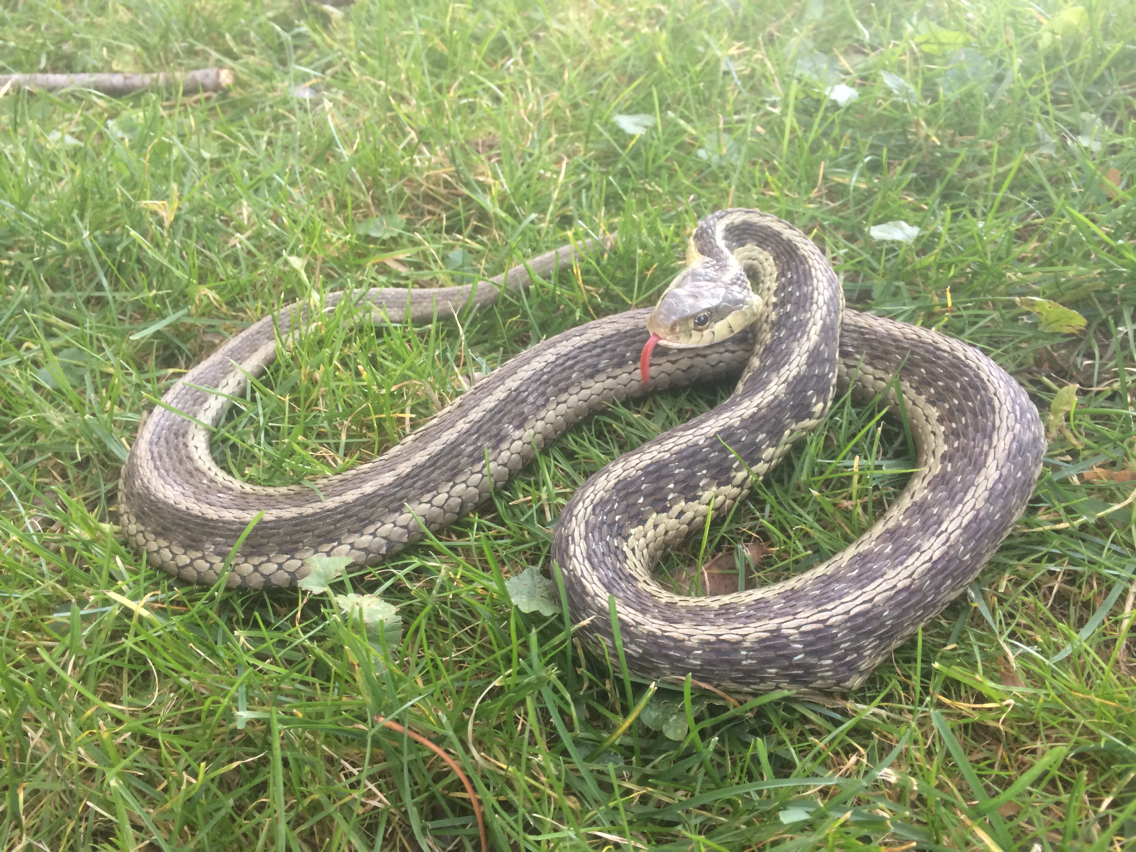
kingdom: Animalia
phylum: Chordata
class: Squamata
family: Colubridae
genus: Thamnophis
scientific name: Thamnophis sirtalis
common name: Common garter snake
